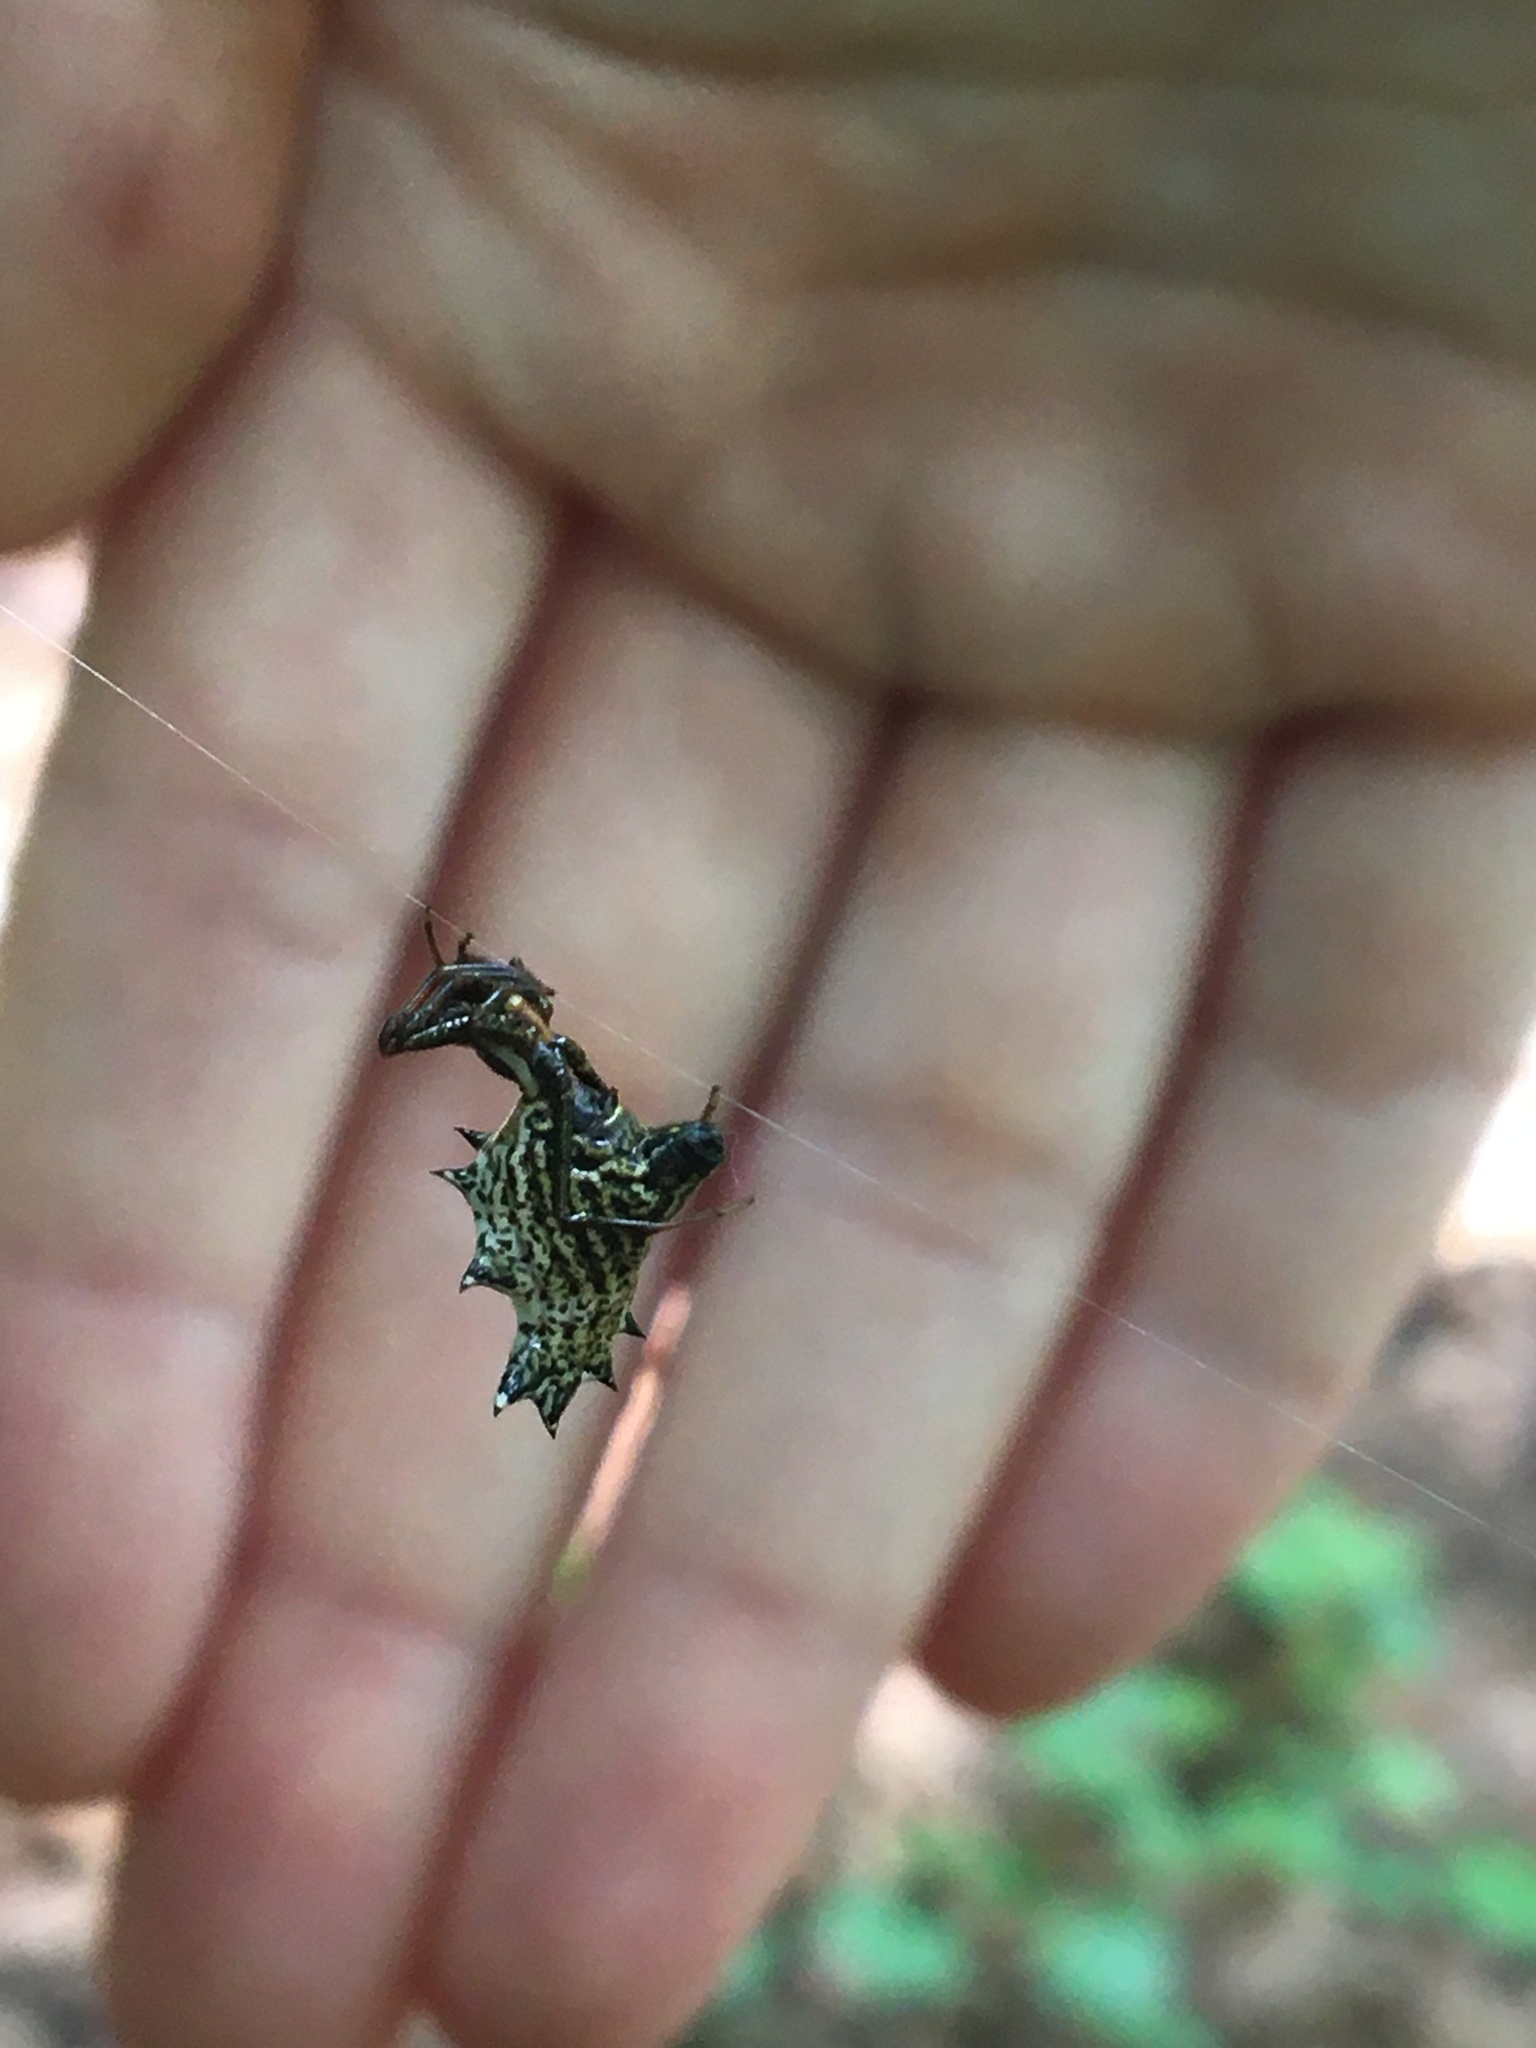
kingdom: Animalia
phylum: Arthropoda
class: Arachnida
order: Araneae
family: Araneidae
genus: Micrathena
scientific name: Micrathena gracilis
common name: Orb weavers
